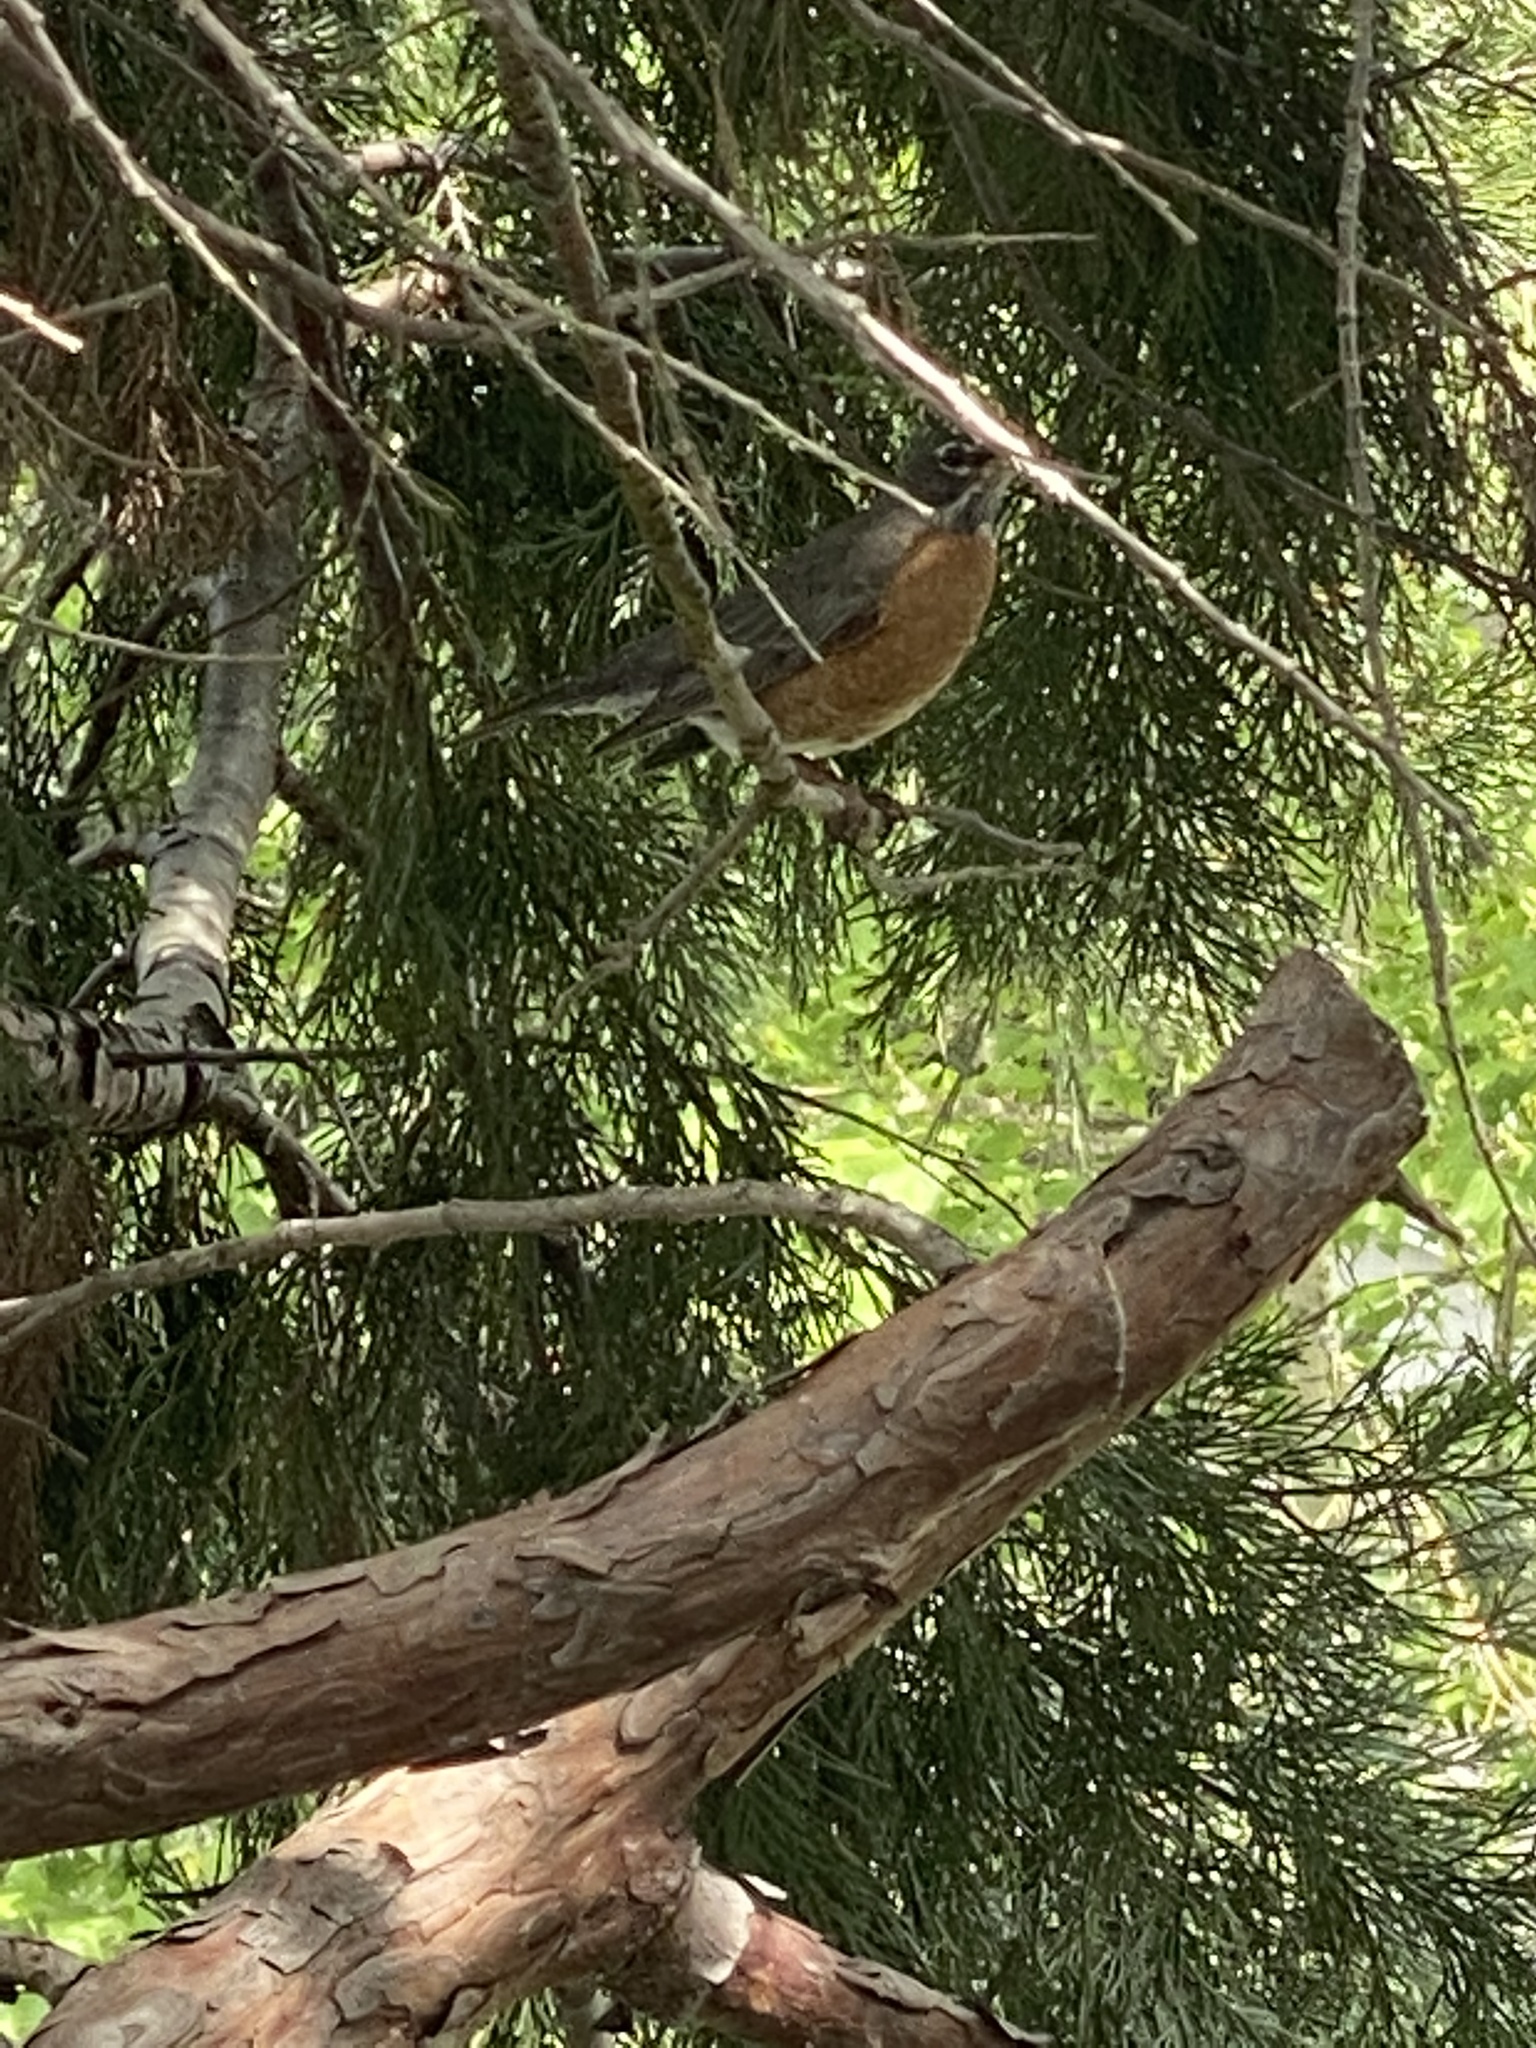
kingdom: Animalia
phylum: Chordata
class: Aves
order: Passeriformes
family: Turdidae
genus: Turdus
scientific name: Turdus migratorius
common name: American robin
